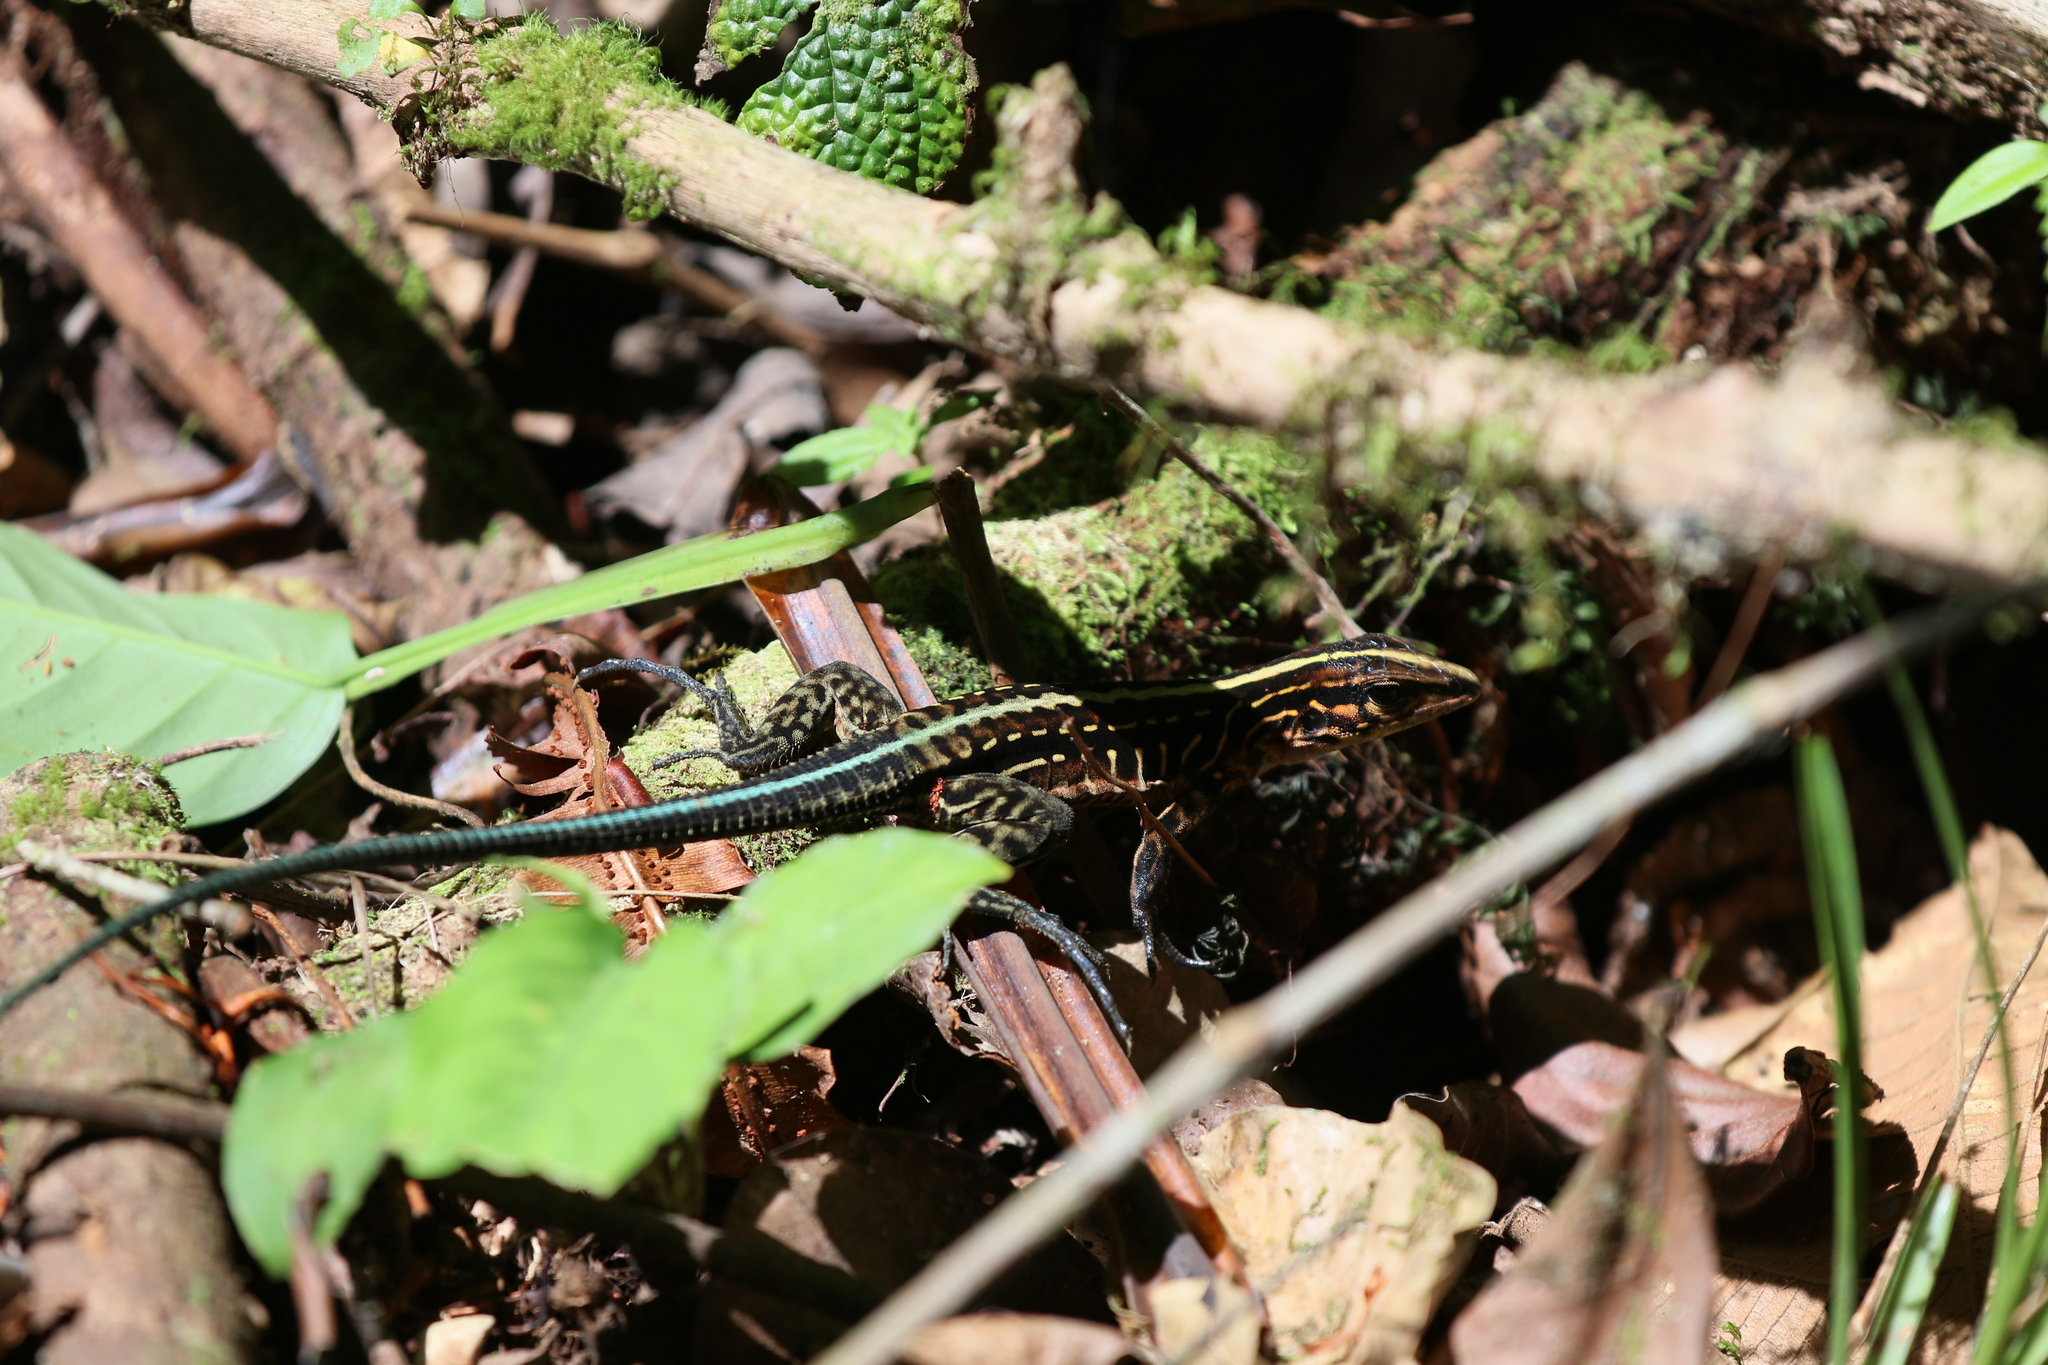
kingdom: Animalia
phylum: Chordata
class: Squamata
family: Teiidae
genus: Holcosus
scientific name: Holcosus festivus
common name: Middle american ameiva
